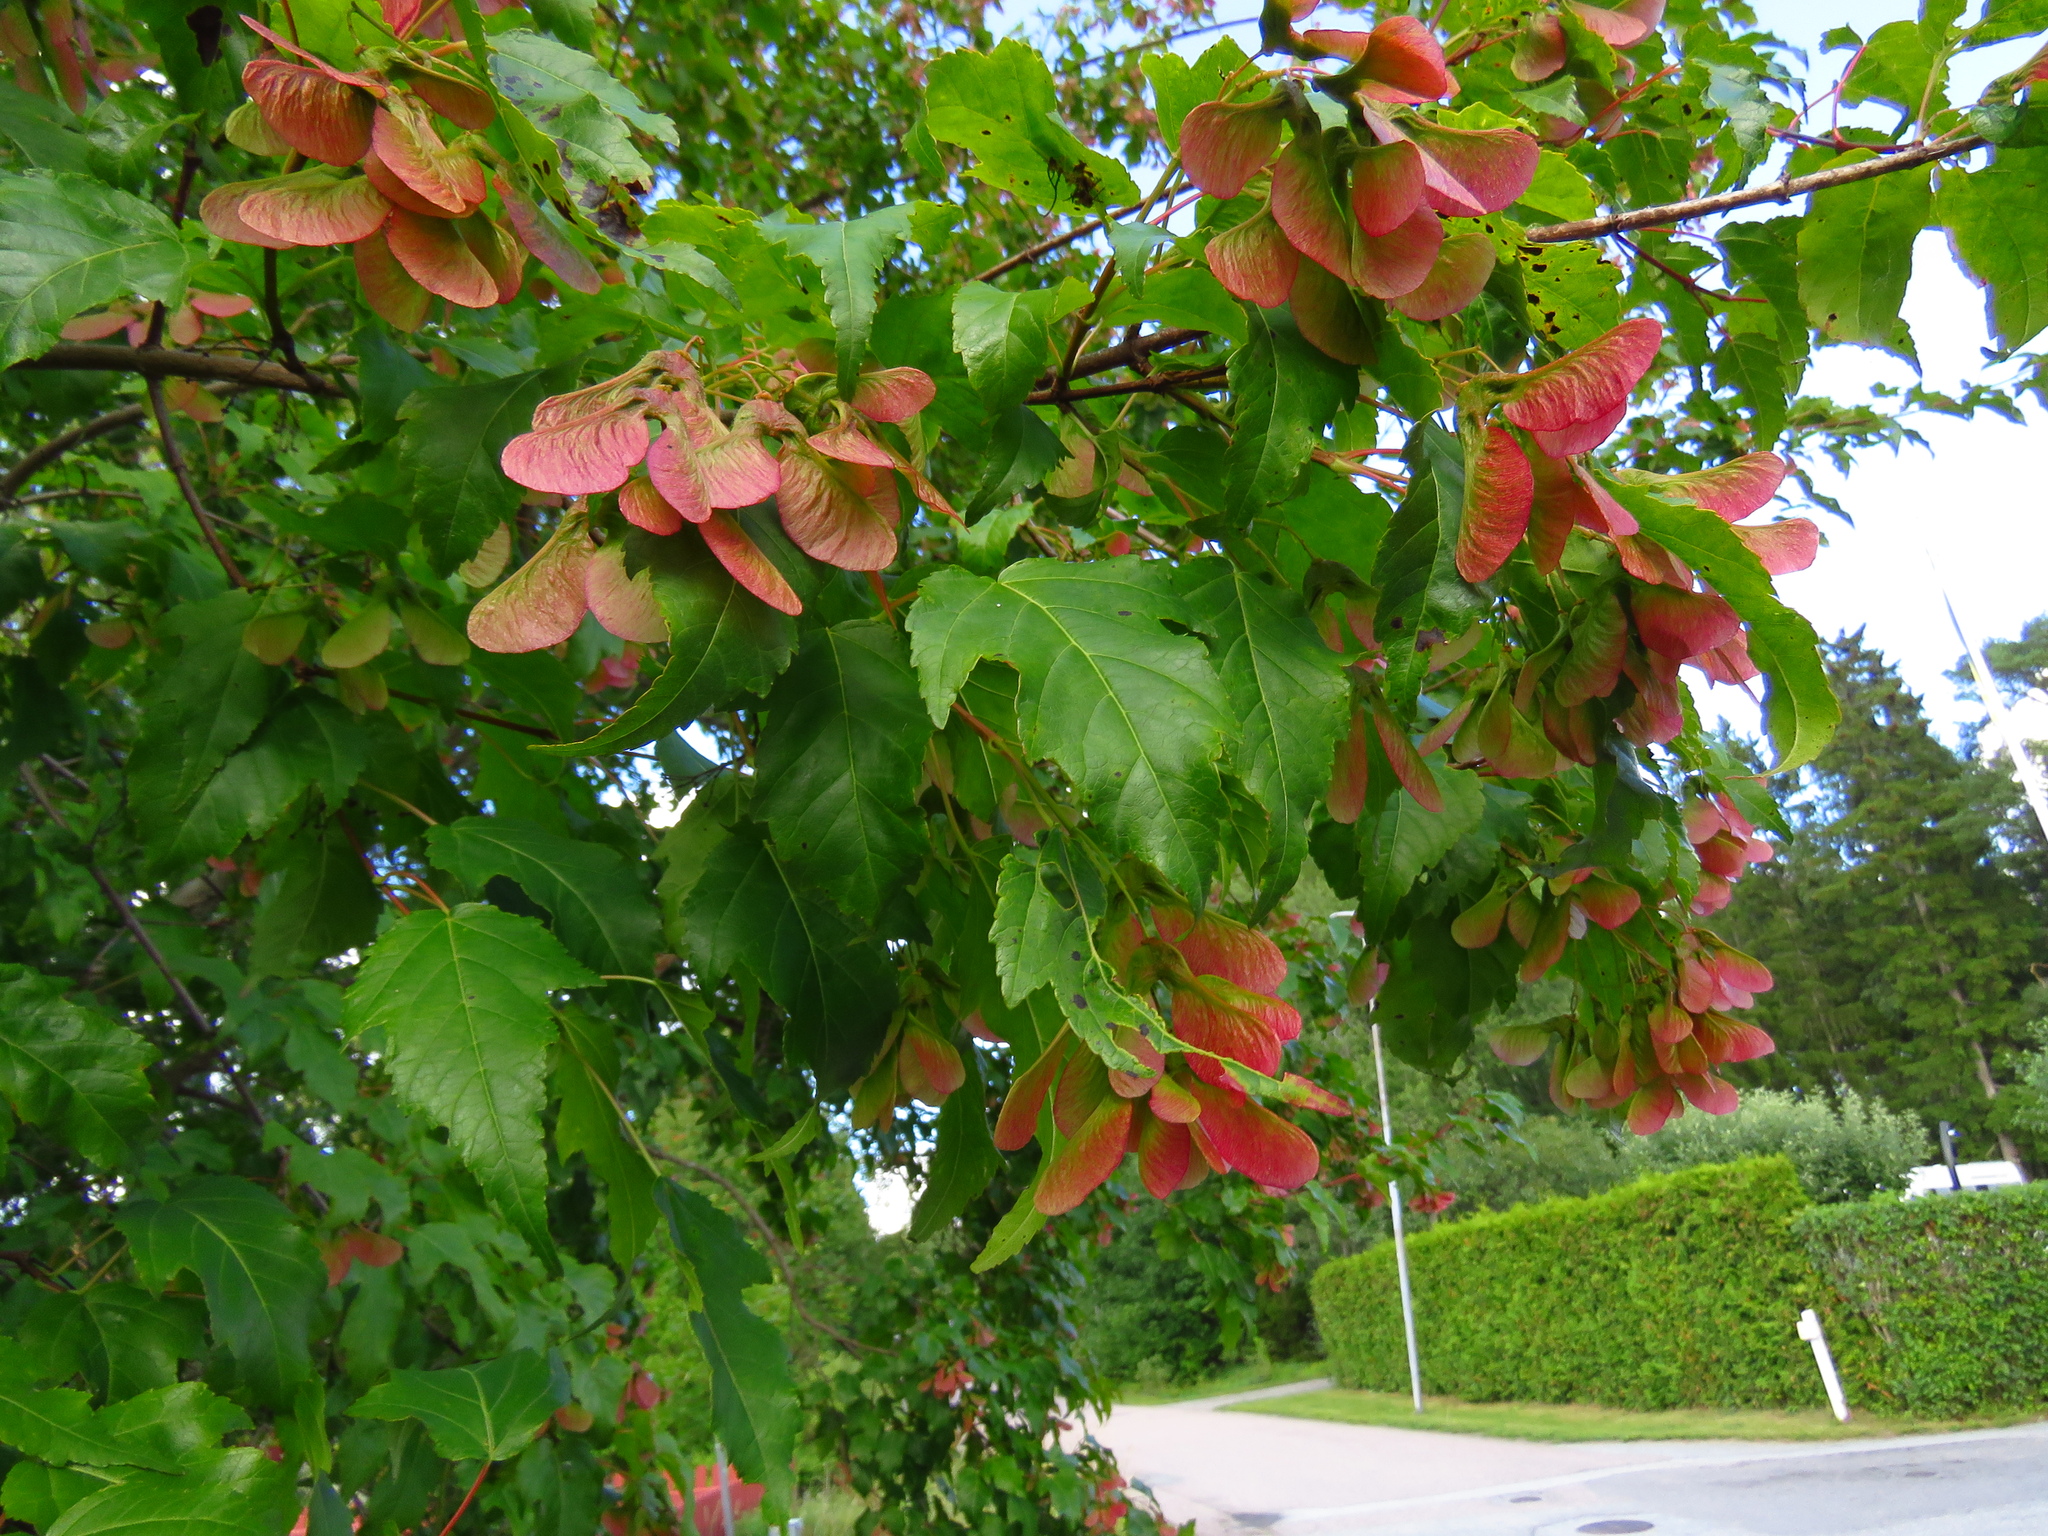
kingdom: Plantae
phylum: Tracheophyta
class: Magnoliopsida
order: Sapindales
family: Sapindaceae
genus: Acer
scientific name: Acer tataricum
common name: Tartar maple
